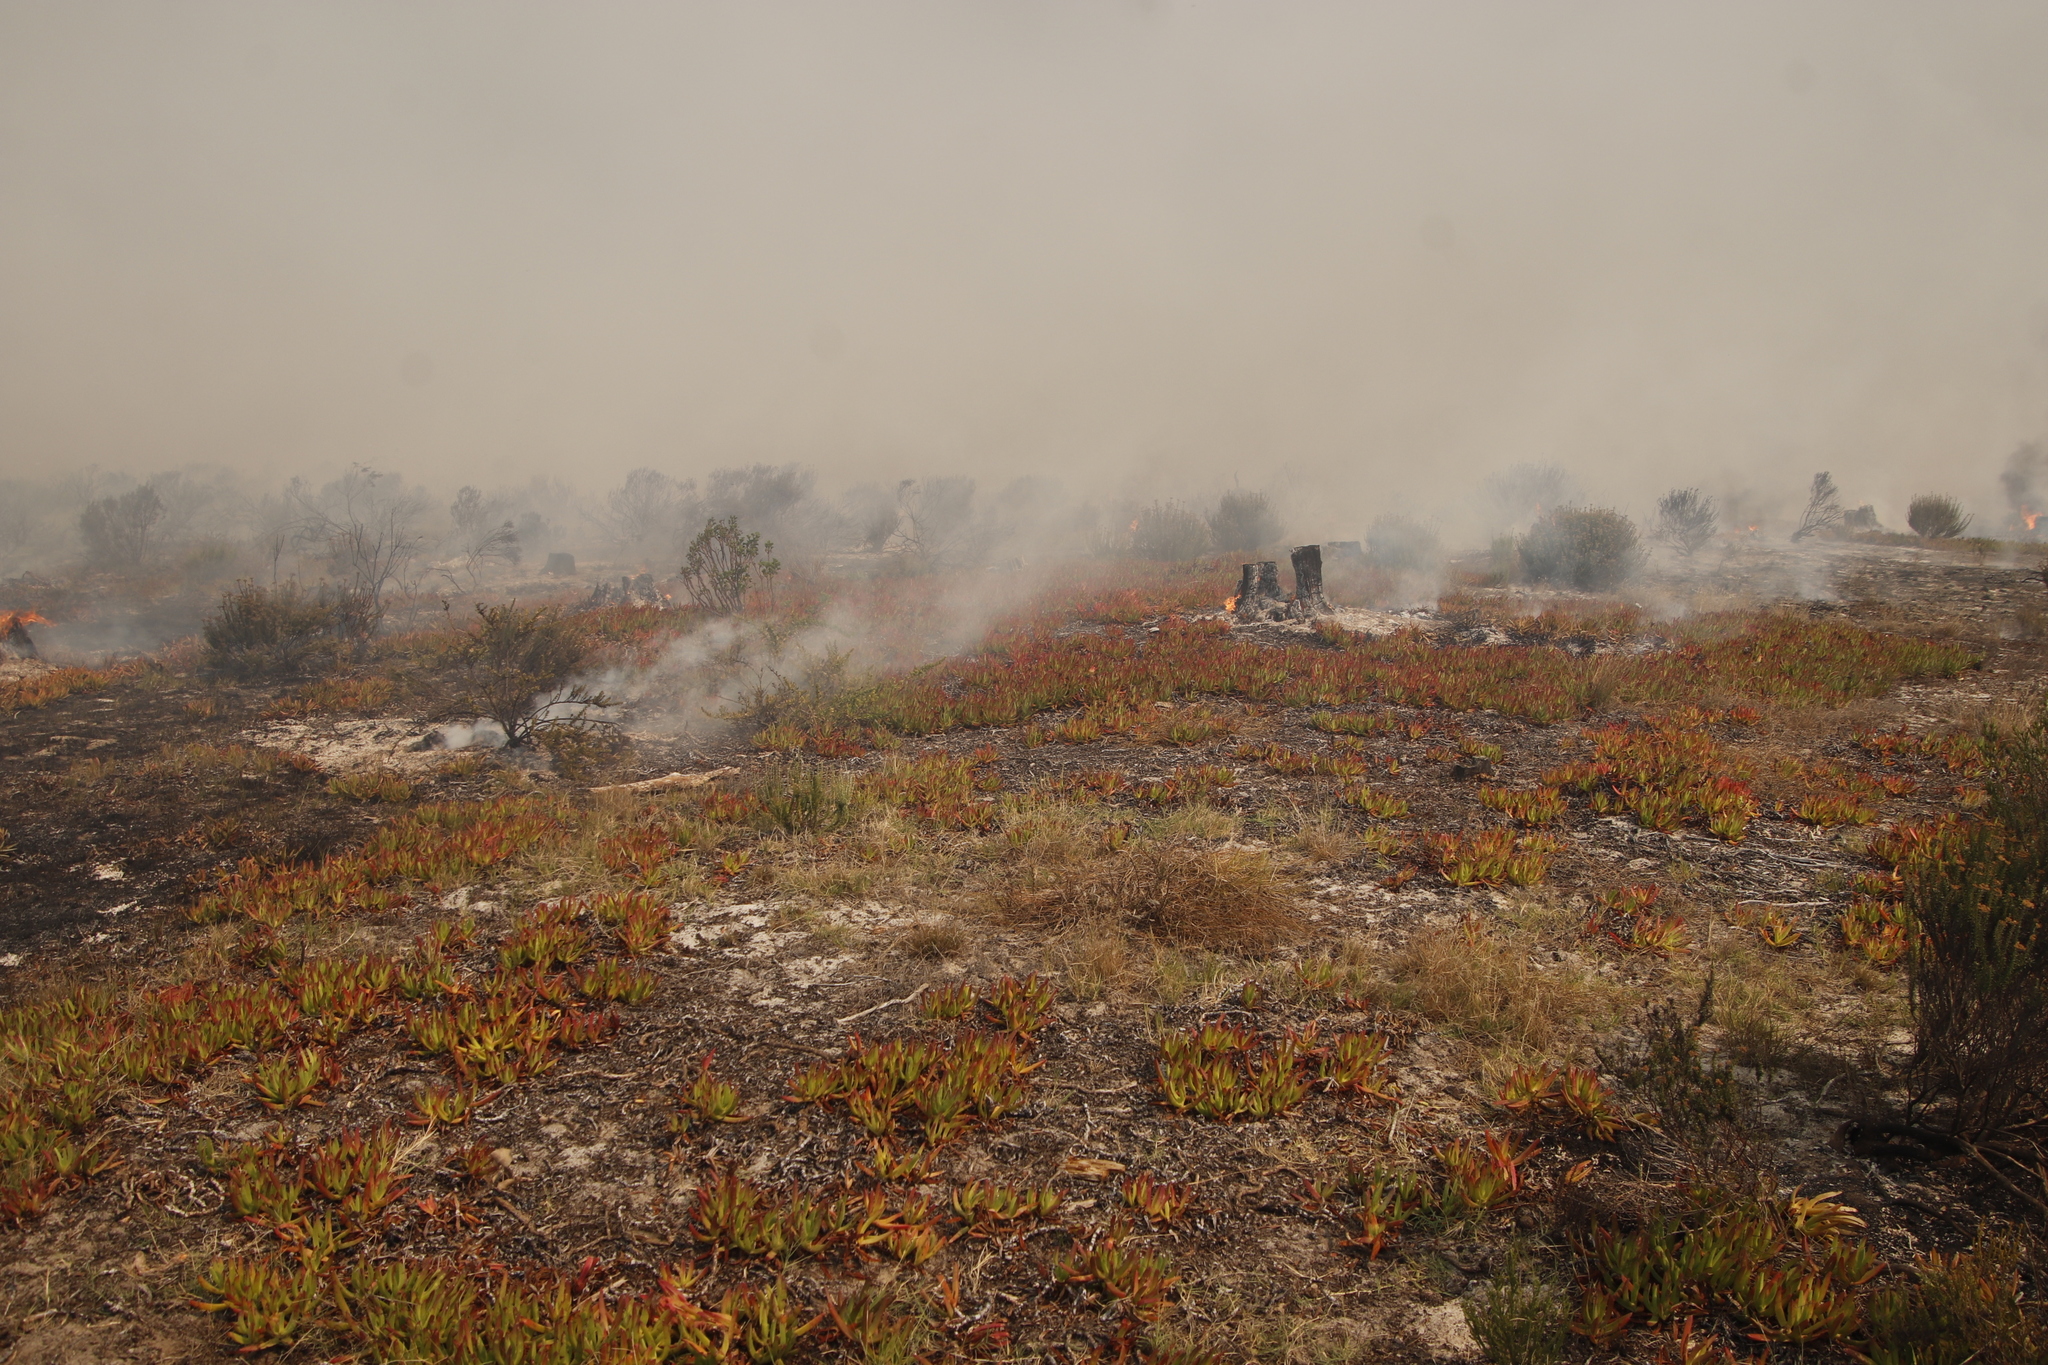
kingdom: Plantae
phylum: Tracheophyta
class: Magnoliopsida
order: Caryophyllales
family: Aizoaceae
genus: Carpobrotus
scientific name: Carpobrotus edulis
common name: Hottentot-fig
